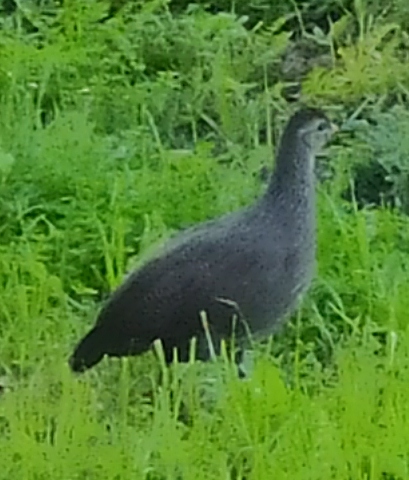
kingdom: Animalia
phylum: Chordata
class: Aves
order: Galliformes
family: Phasianidae
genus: Pternistis
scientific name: Pternistis capensis
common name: Cape spurfowl
